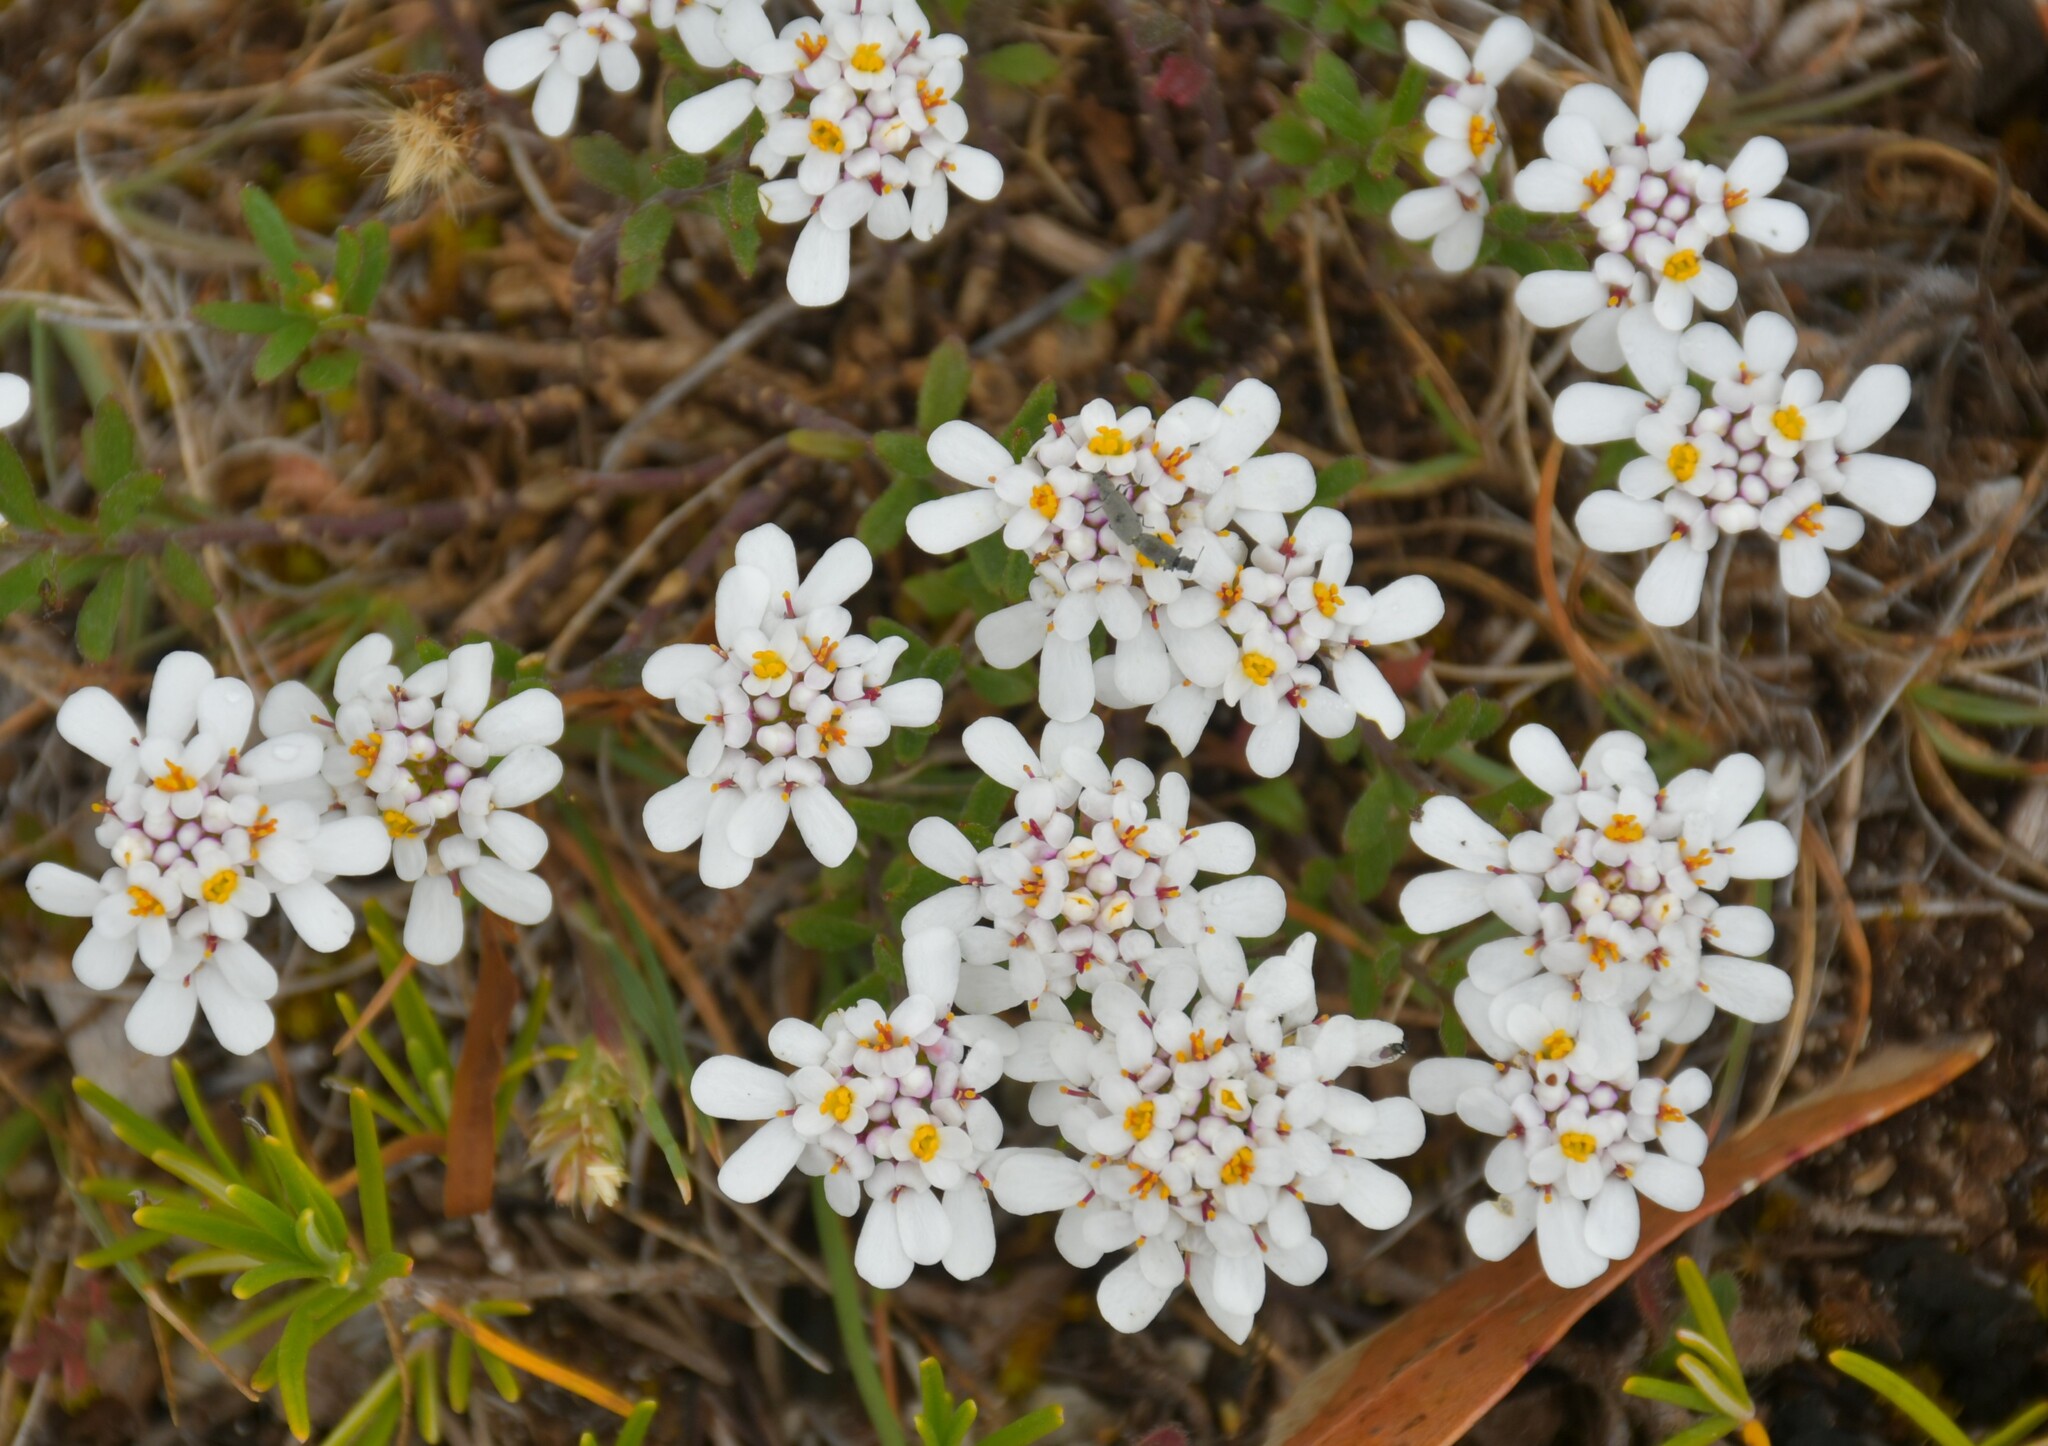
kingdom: Plantae
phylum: Tracheophyta
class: Magnoliopsida
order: Brassicales
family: Brassicaceae
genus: Iberis
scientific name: Iberis procumbens
